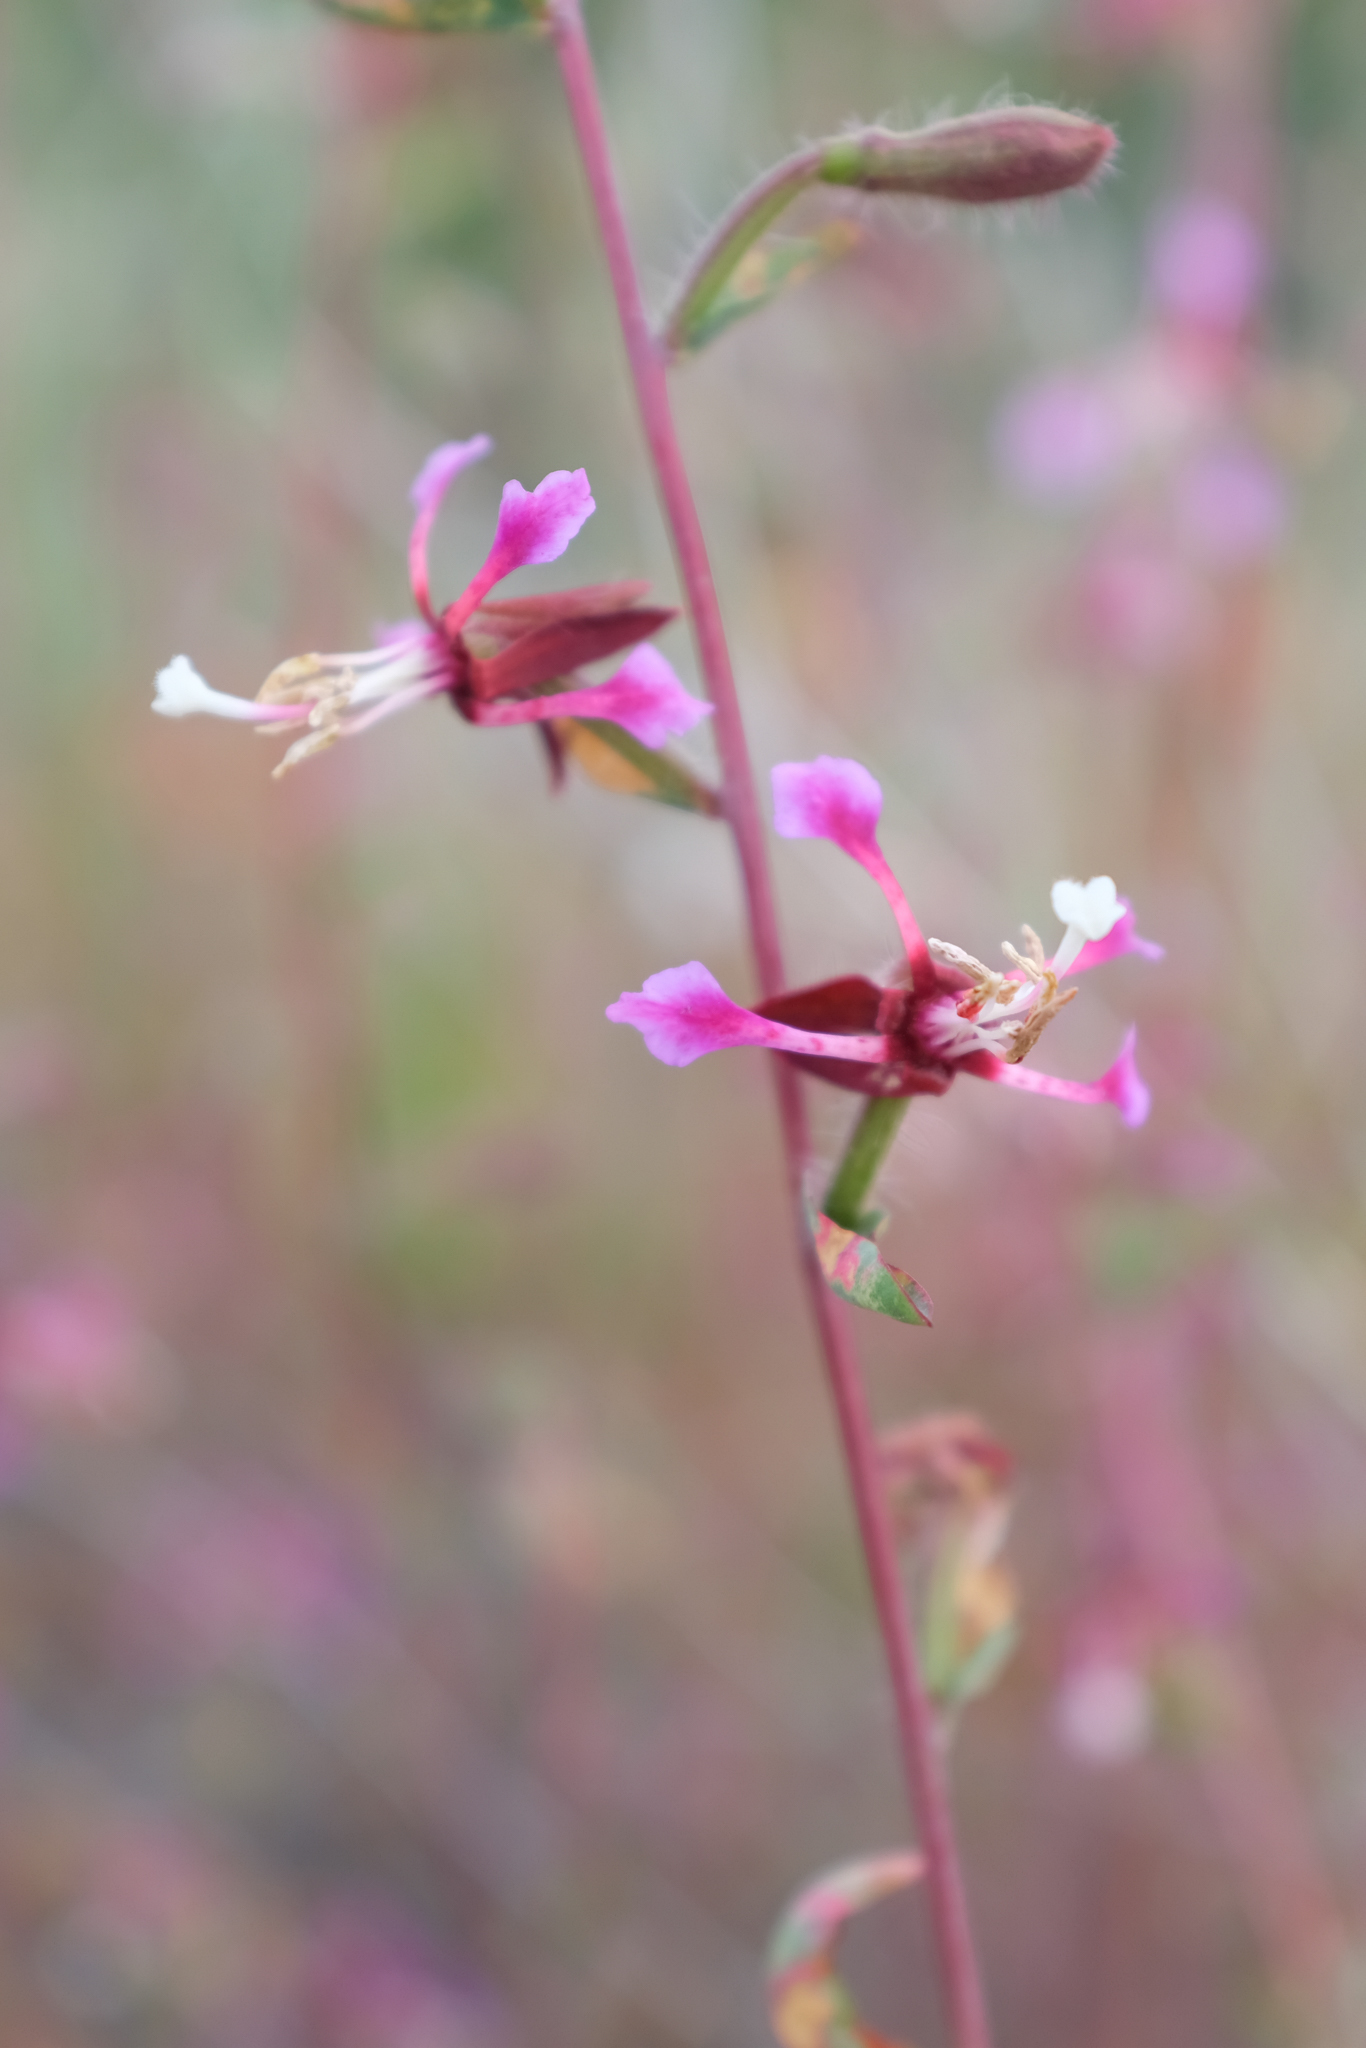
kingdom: Plantae
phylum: Tracheophyta
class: Magnoliopsida
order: Myrtales
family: Onagraceae
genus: Clarkia
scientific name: Clarkia unguiculata
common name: Clarkia
